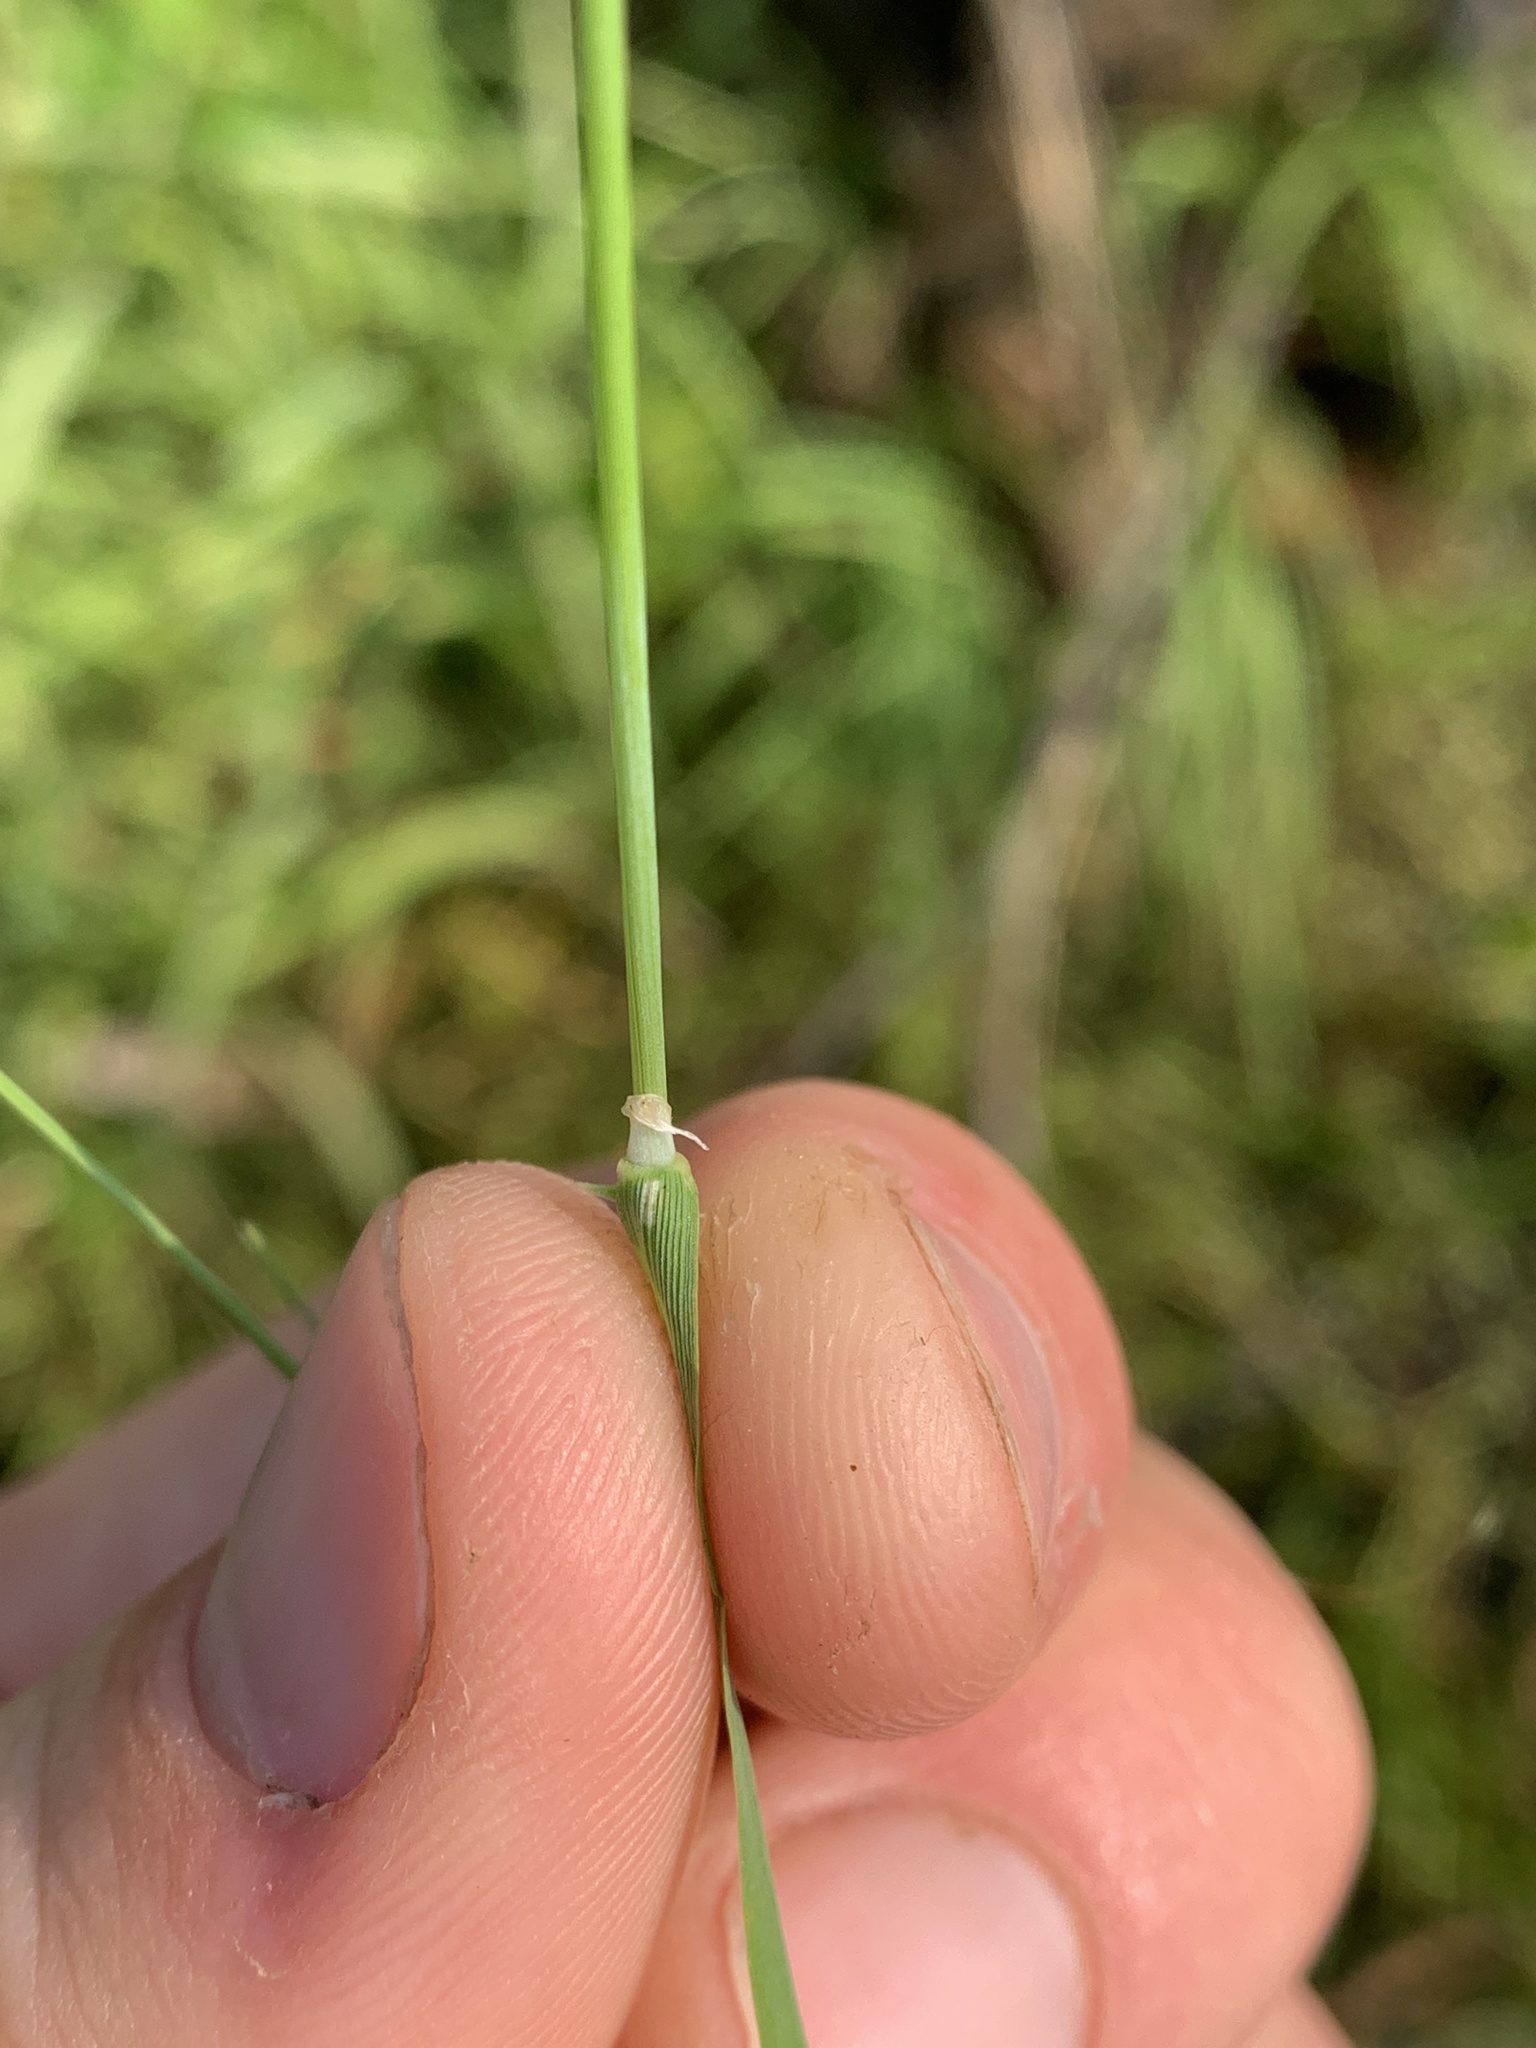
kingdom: Plantae
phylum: Tracheophyta
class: Liliopsida
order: Poales
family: Poaceae
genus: Alopecurus
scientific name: Alopecurus aequalis
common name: Orange foxtail
